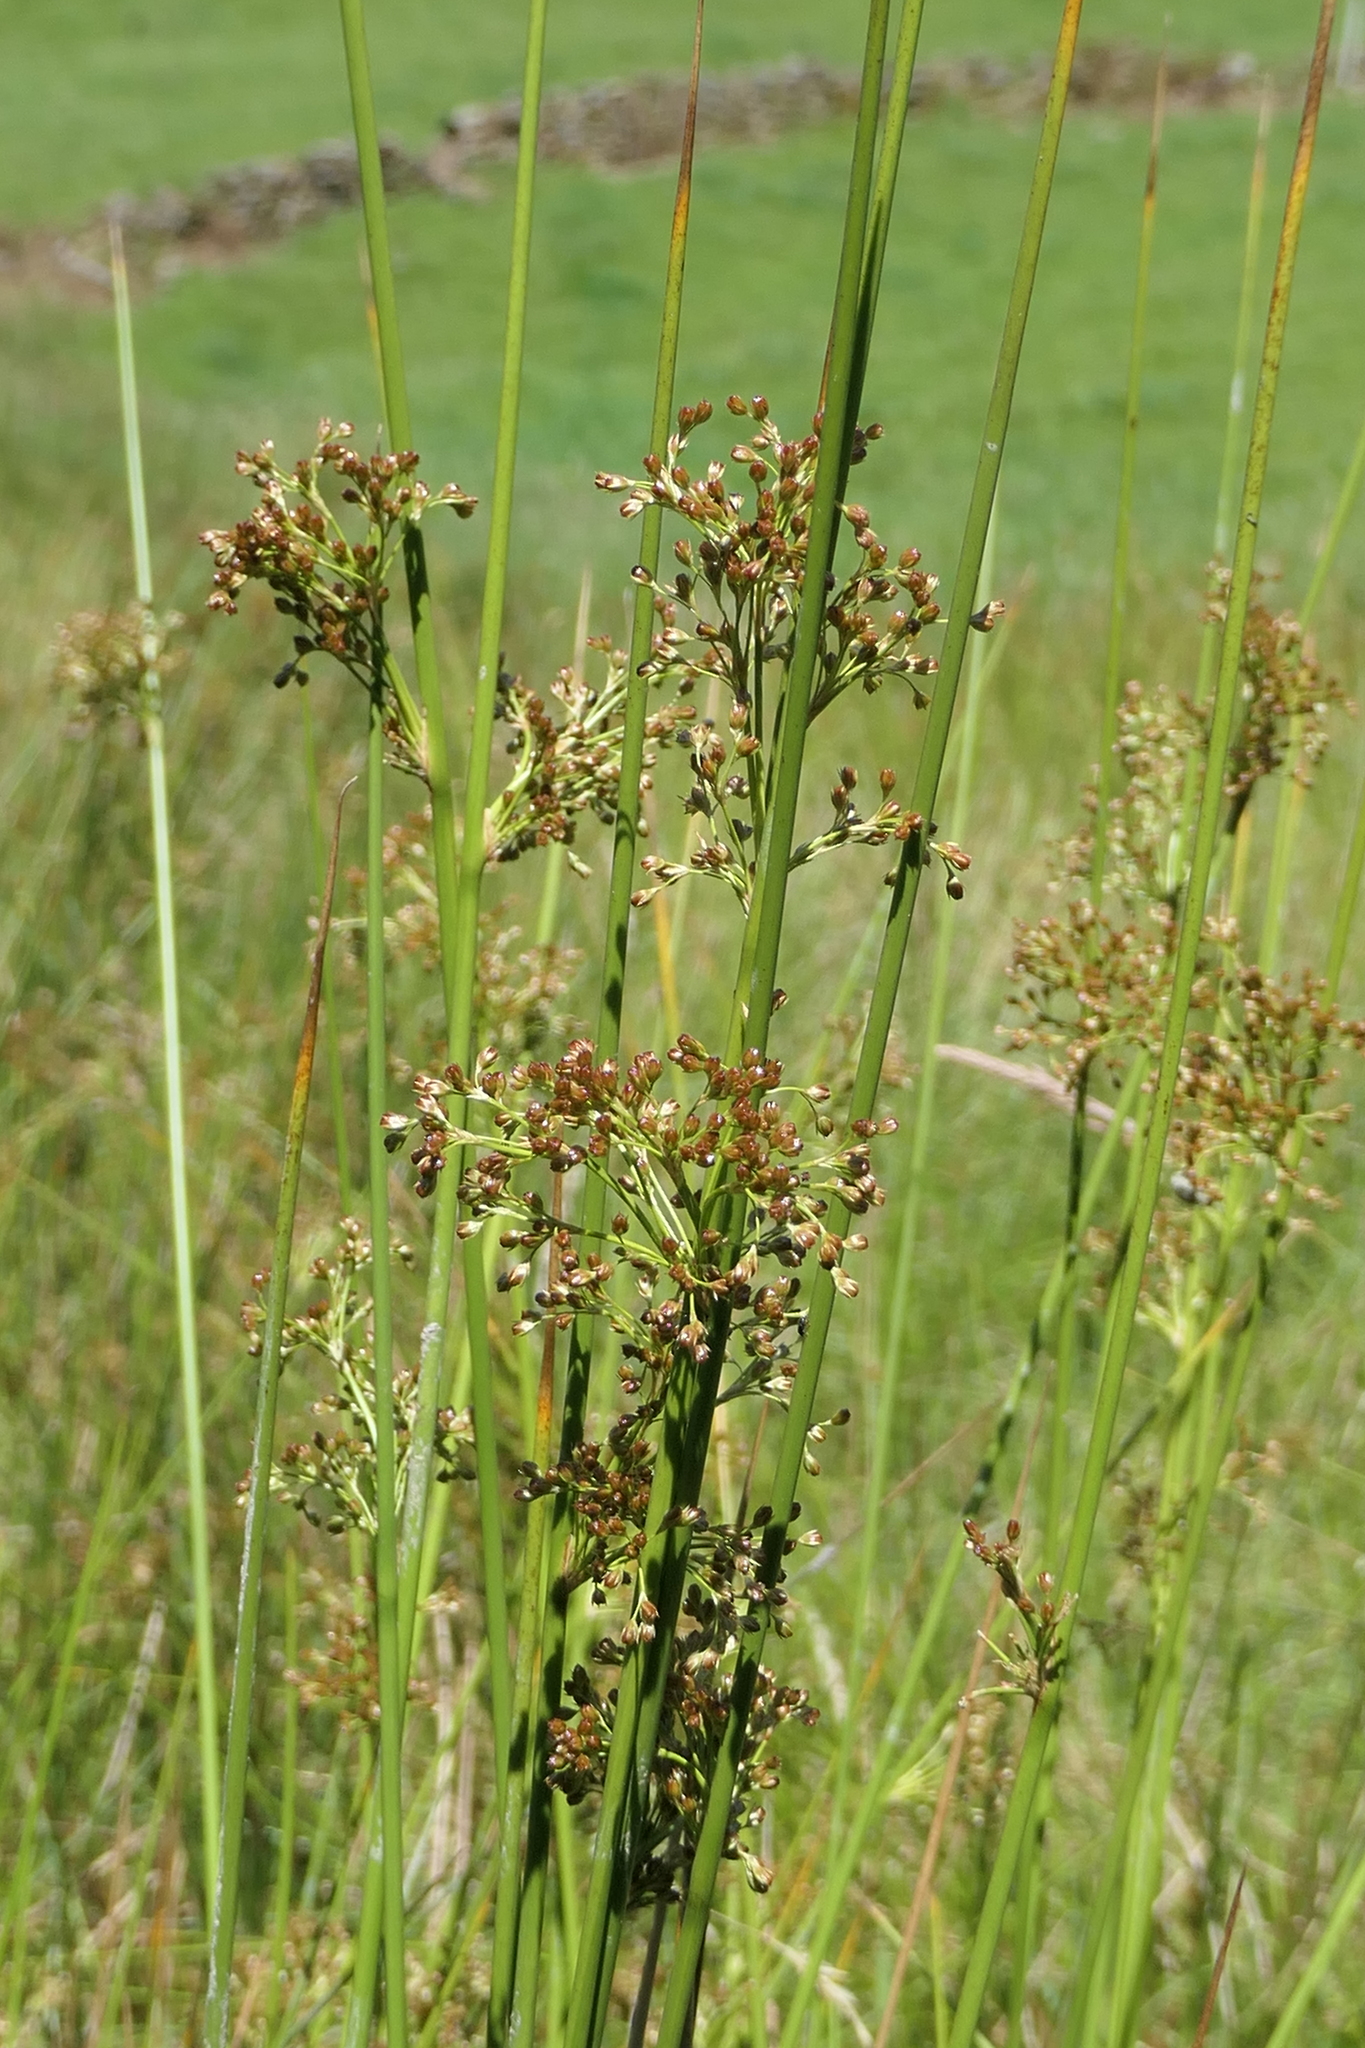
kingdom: Plantae
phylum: Tracheophyta
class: Liliopsida
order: Poales
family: Juncaceae
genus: Juncus
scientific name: Juncus effusus
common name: Soft rush
